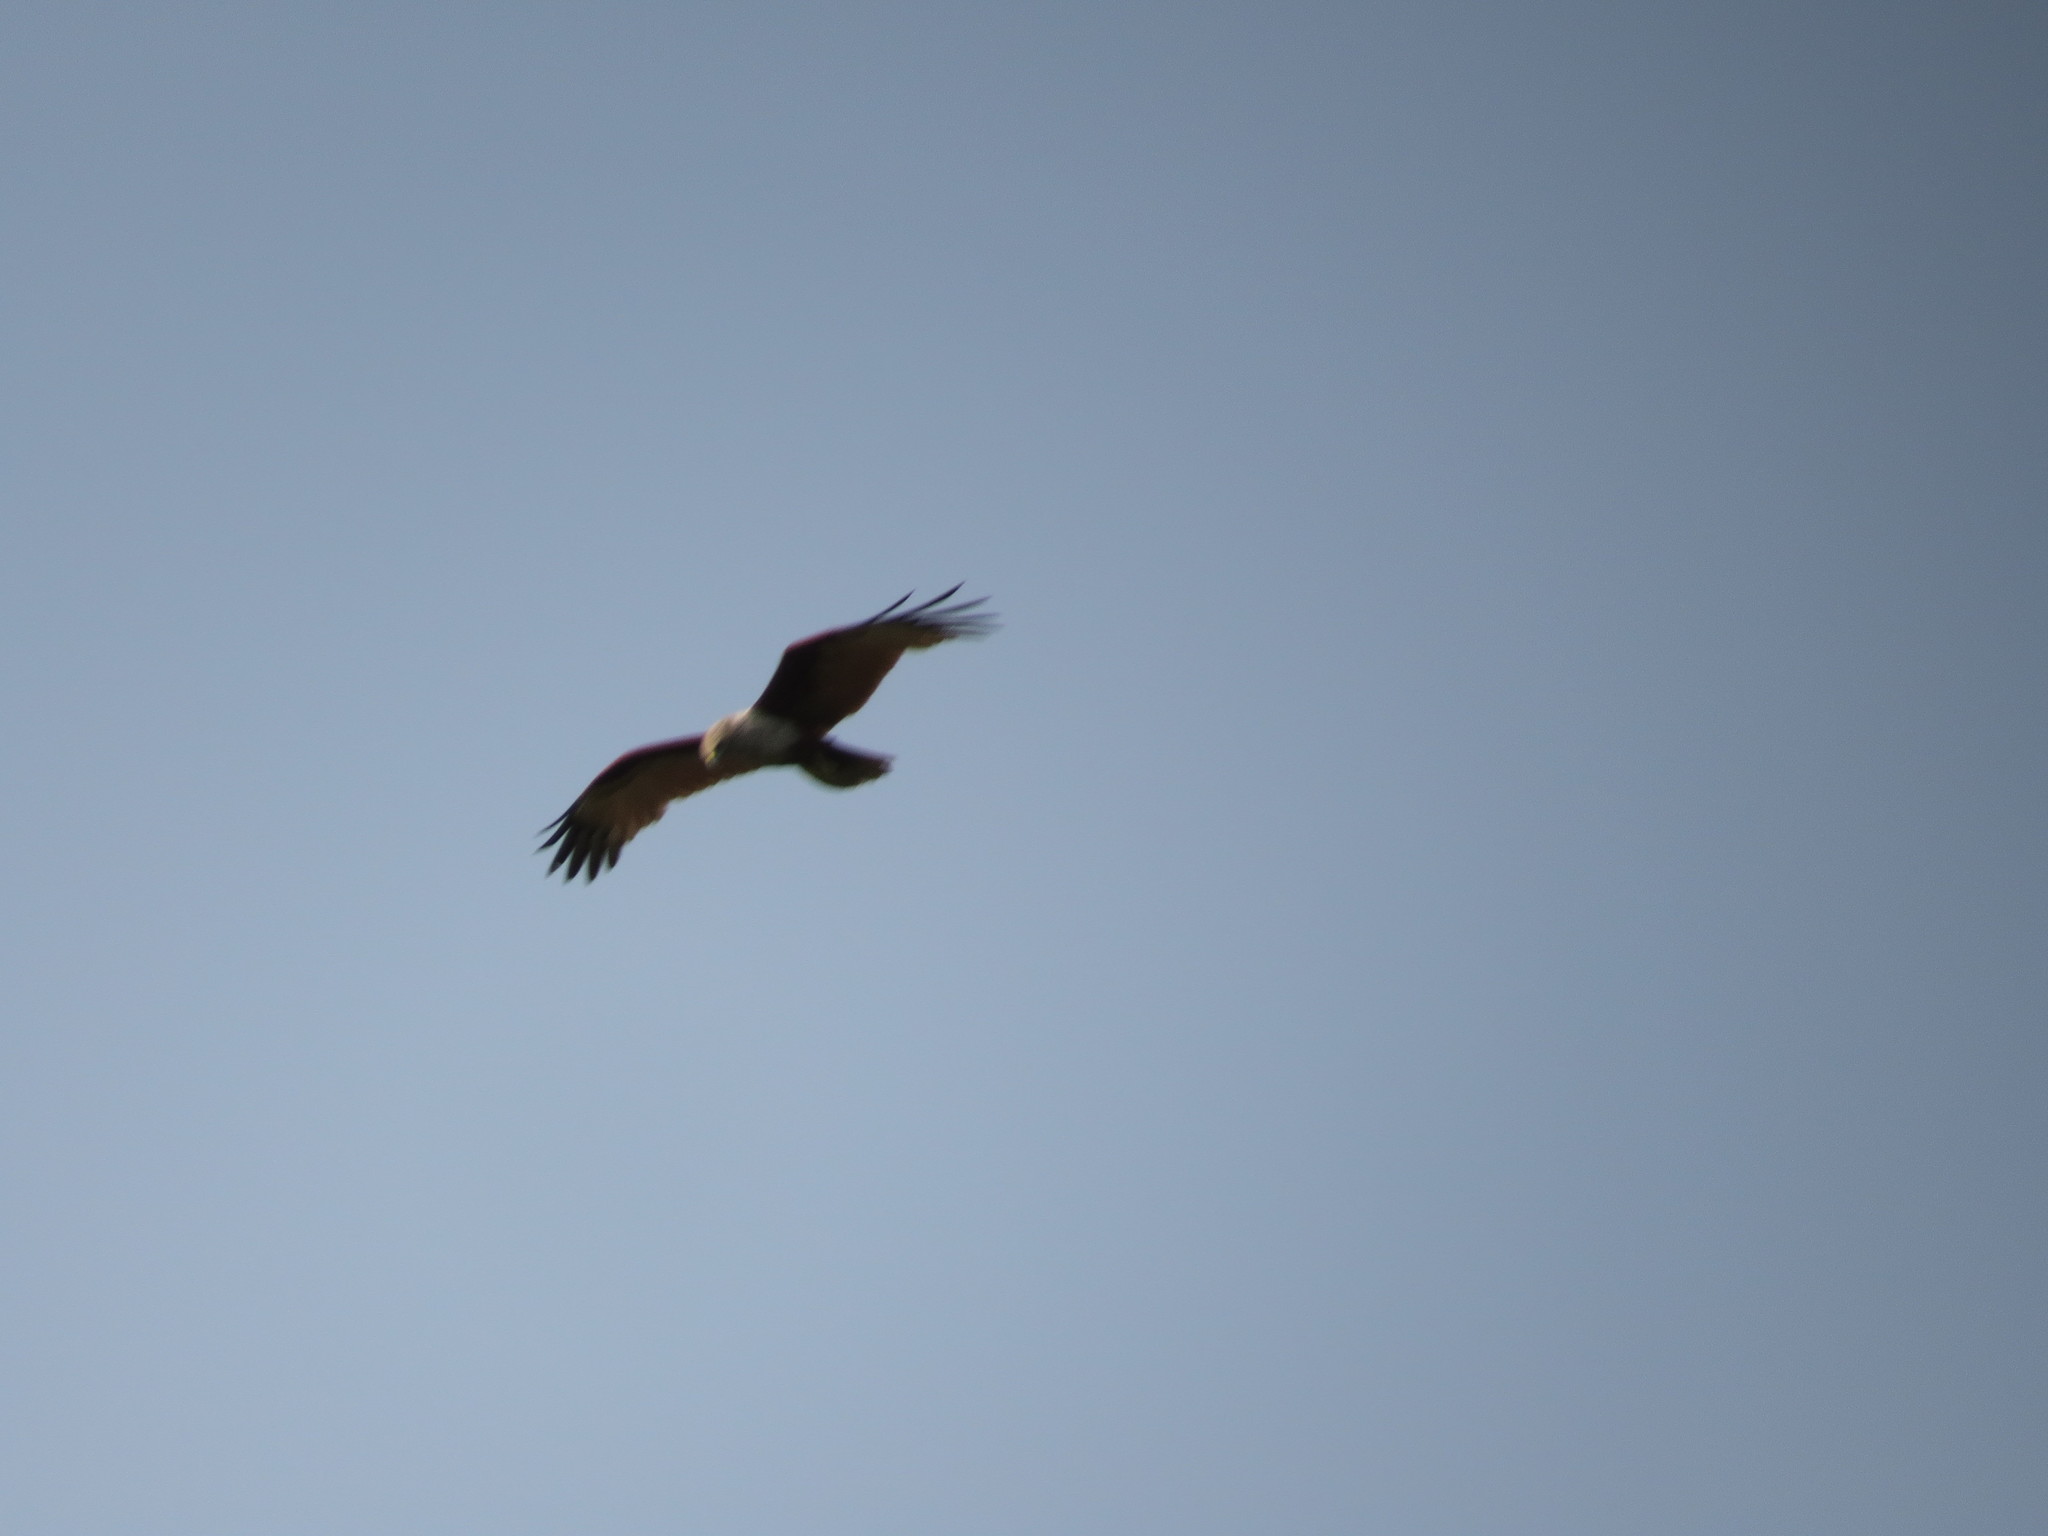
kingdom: Animalia
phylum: Chordata
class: Aves
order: Accipitriformes
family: Accipitridae
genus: Haliastur
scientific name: Haliastur indus
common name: Brahminy kite
